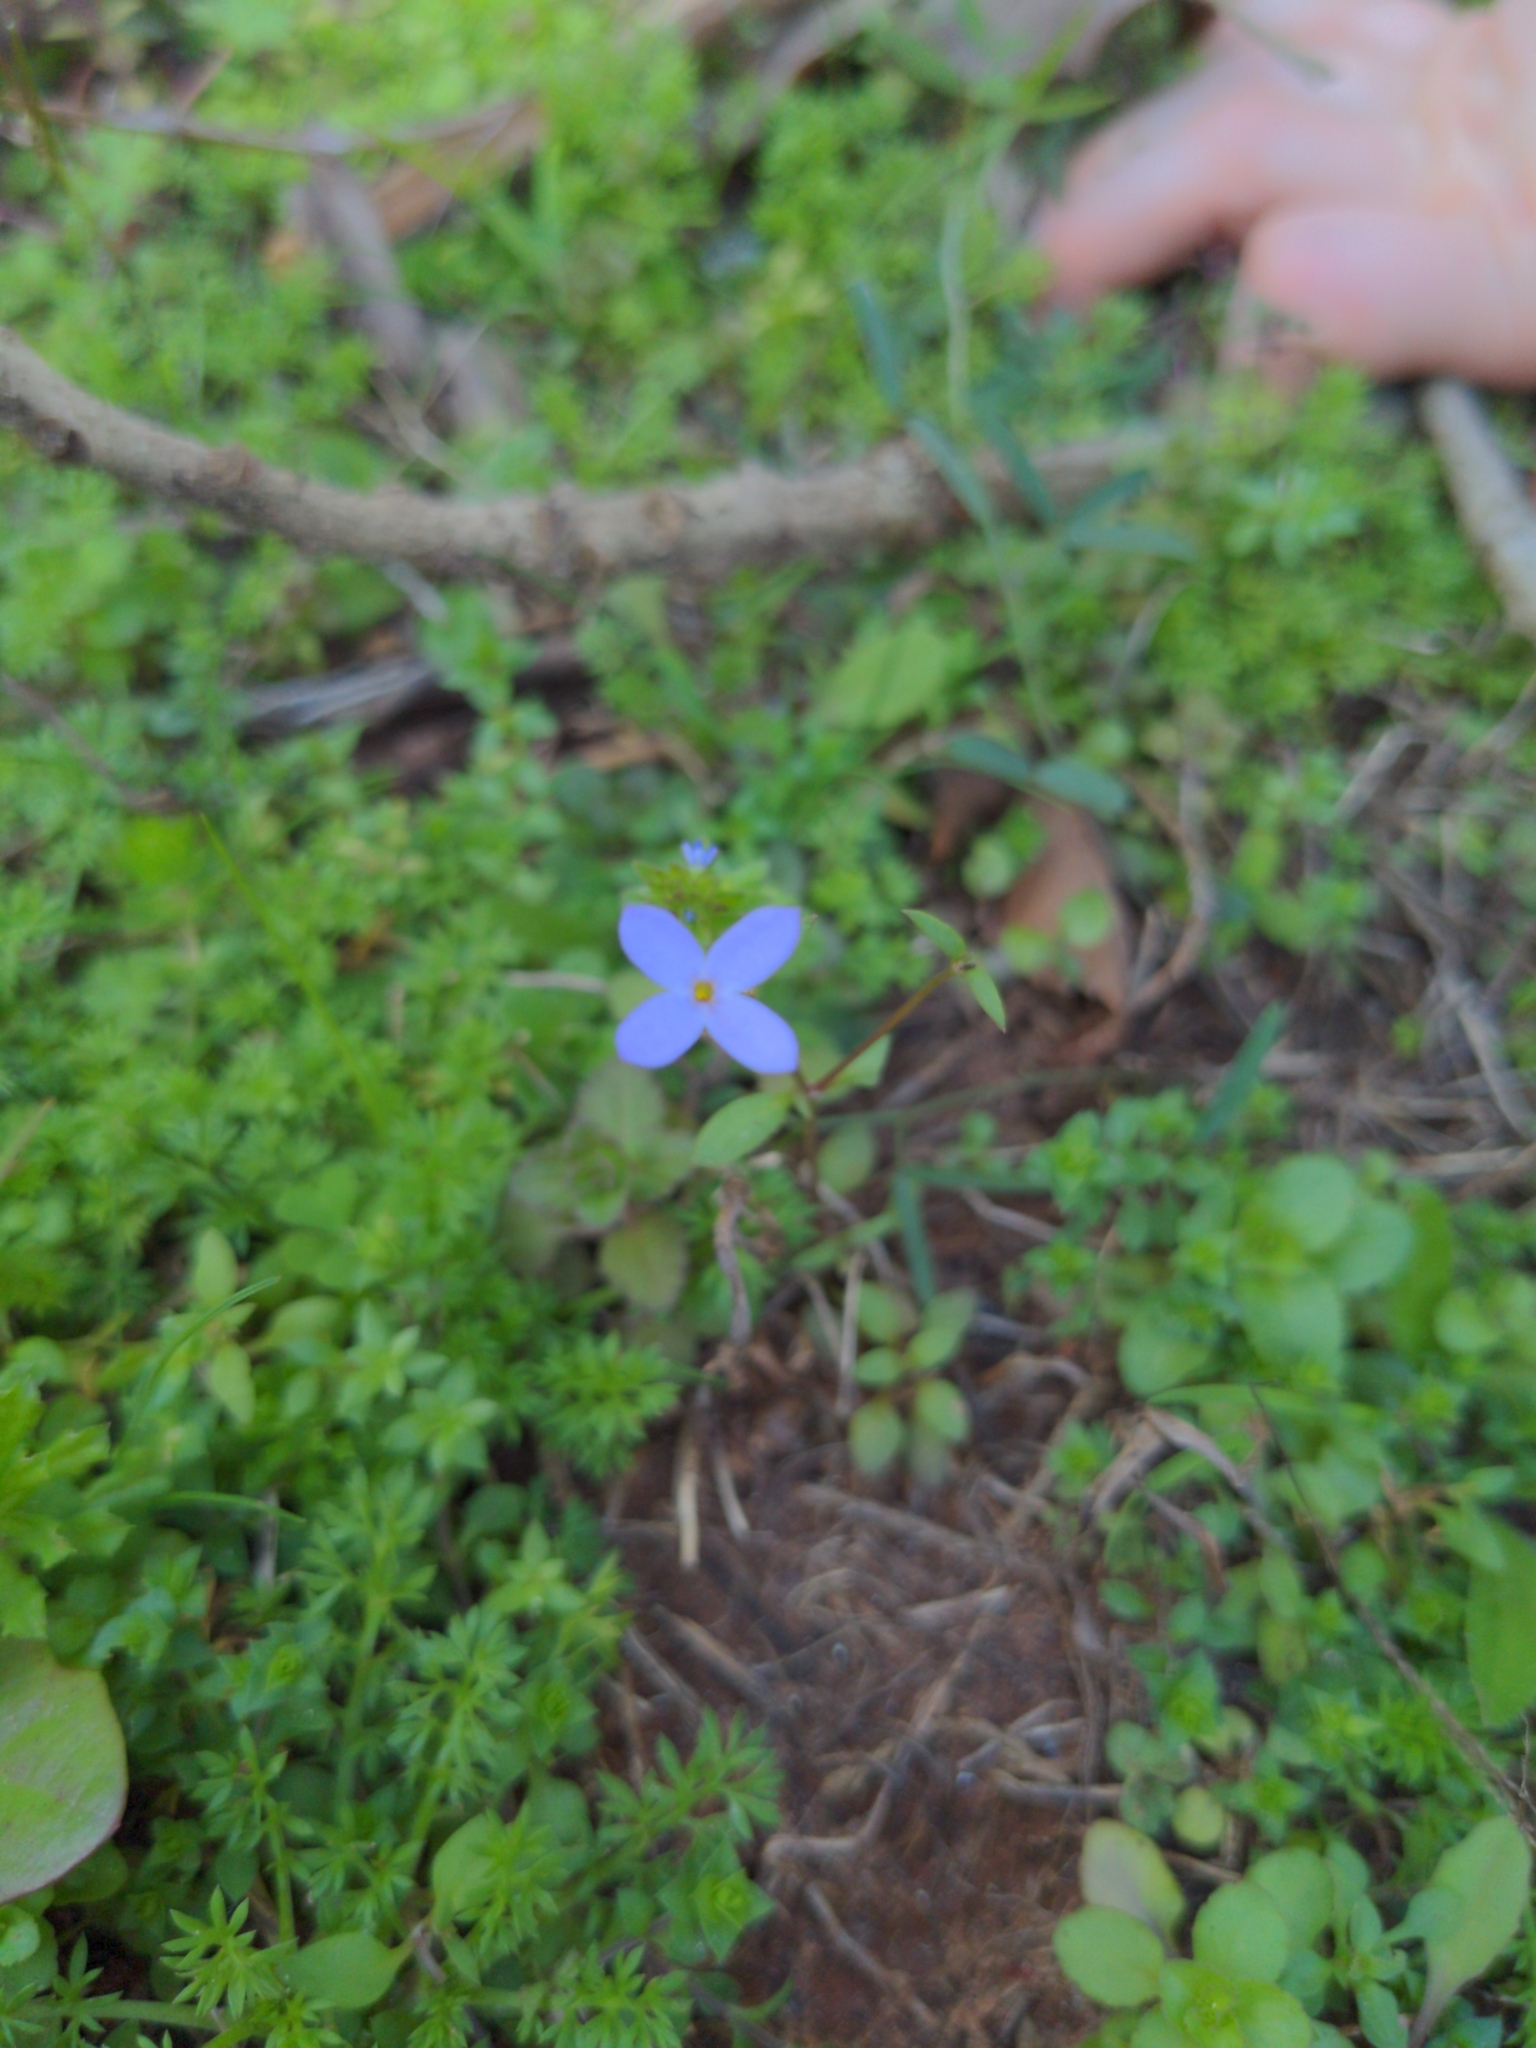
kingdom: Plantae
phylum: Tracheophyta
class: Magnoliopsida
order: Gentianales
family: Rubiaceae
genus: Houstonia
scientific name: Houstonia pusilla
